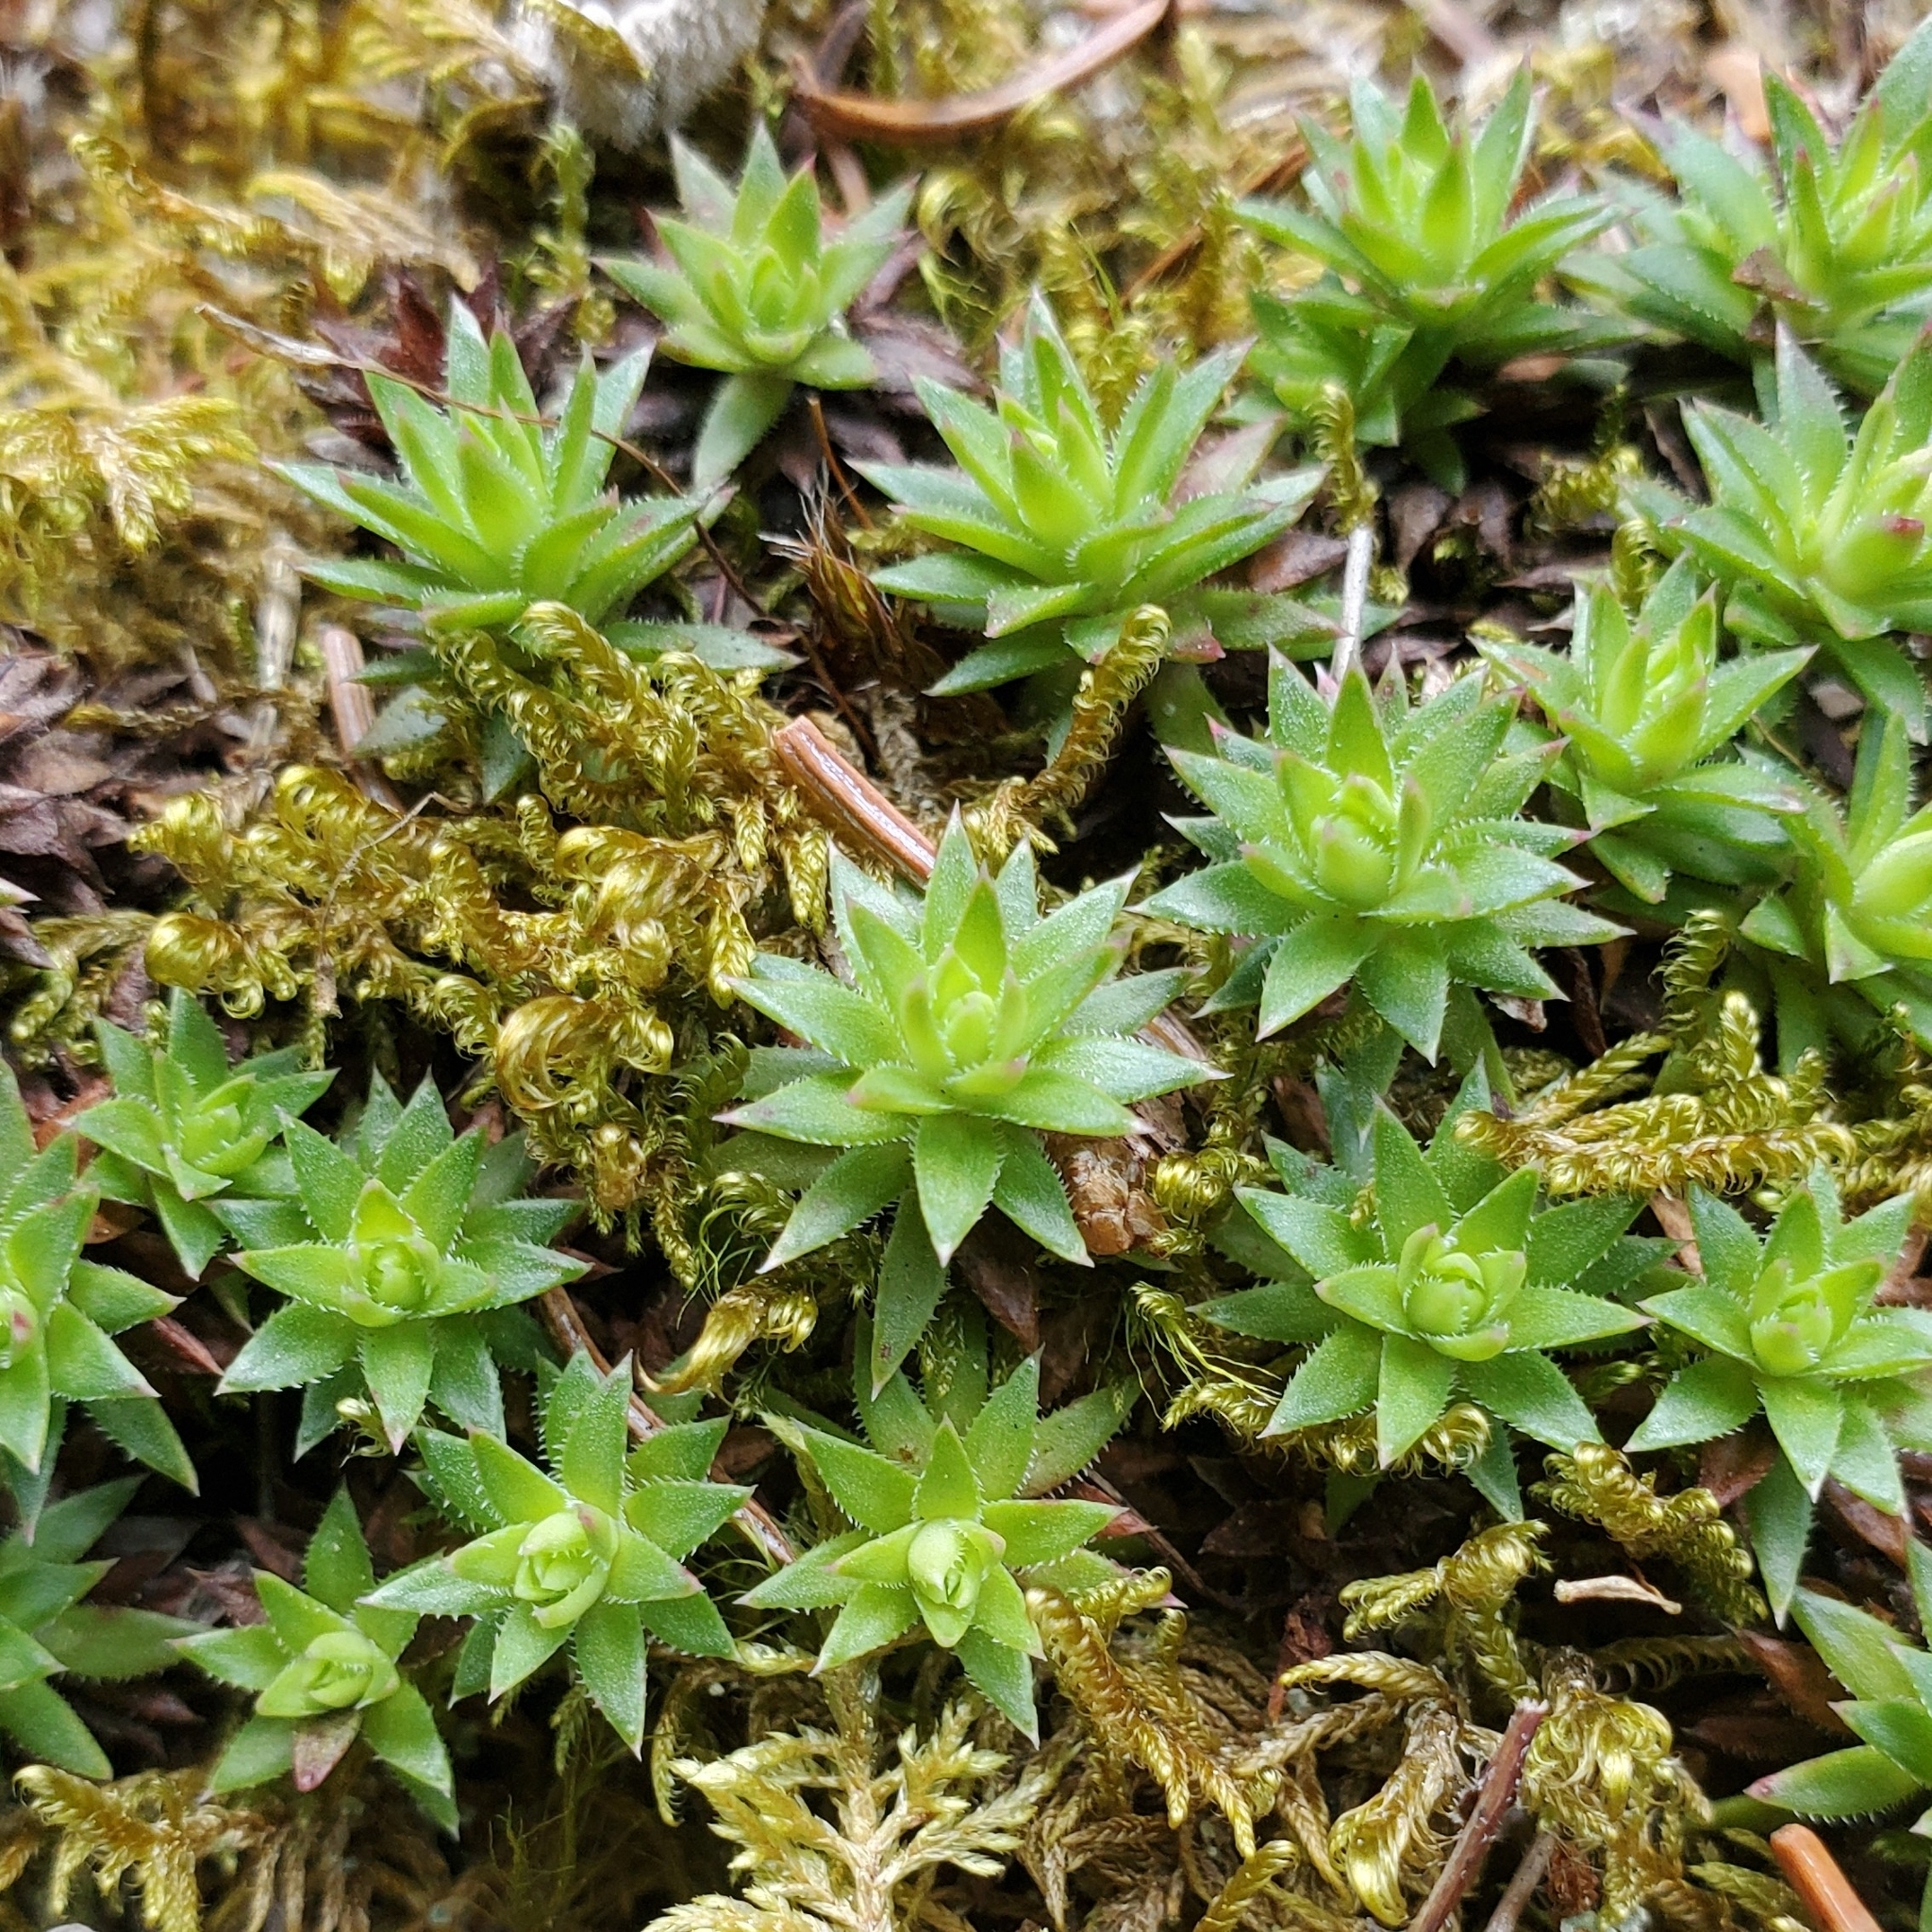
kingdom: Plantae
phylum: Tracheophyta
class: Magnoliopsida
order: Saxifragales
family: Saxifragaceae
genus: Saxifraga
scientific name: Saxifraga bronchialis
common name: Matted saxifrage
